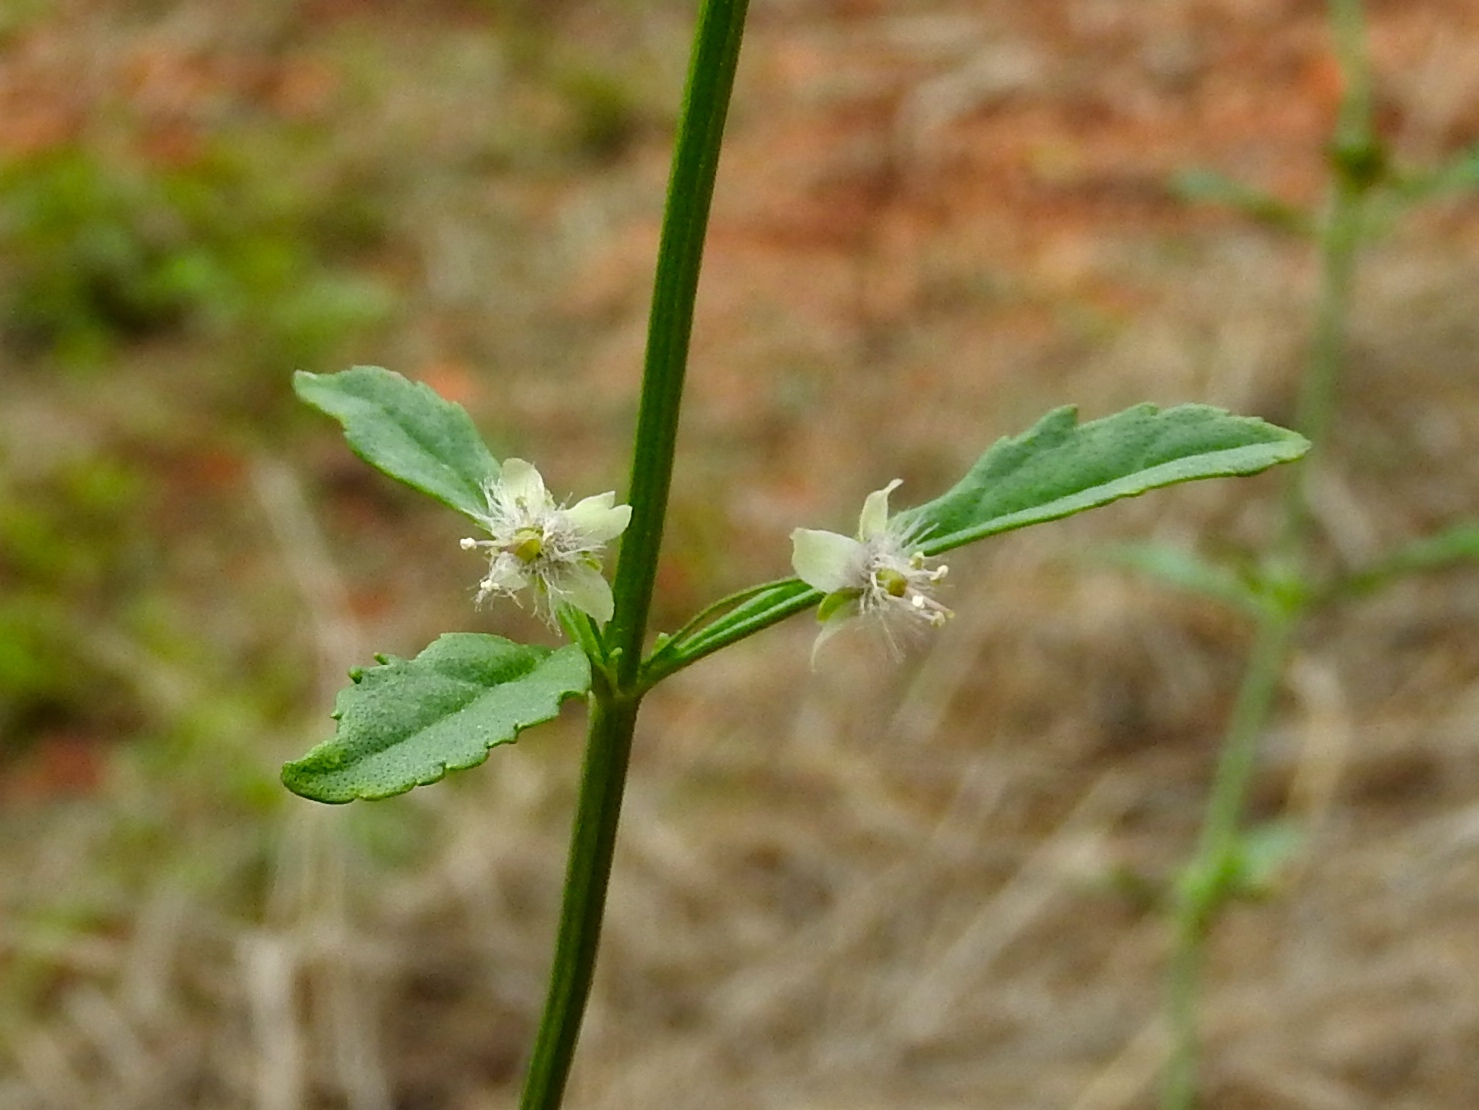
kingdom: Plantae
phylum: Tracheophyta
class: Magnoliopsida
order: Lamiales
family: Plantaginaceae
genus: Scoparia
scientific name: Scoparia dulcis
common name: Scoparia-weed
